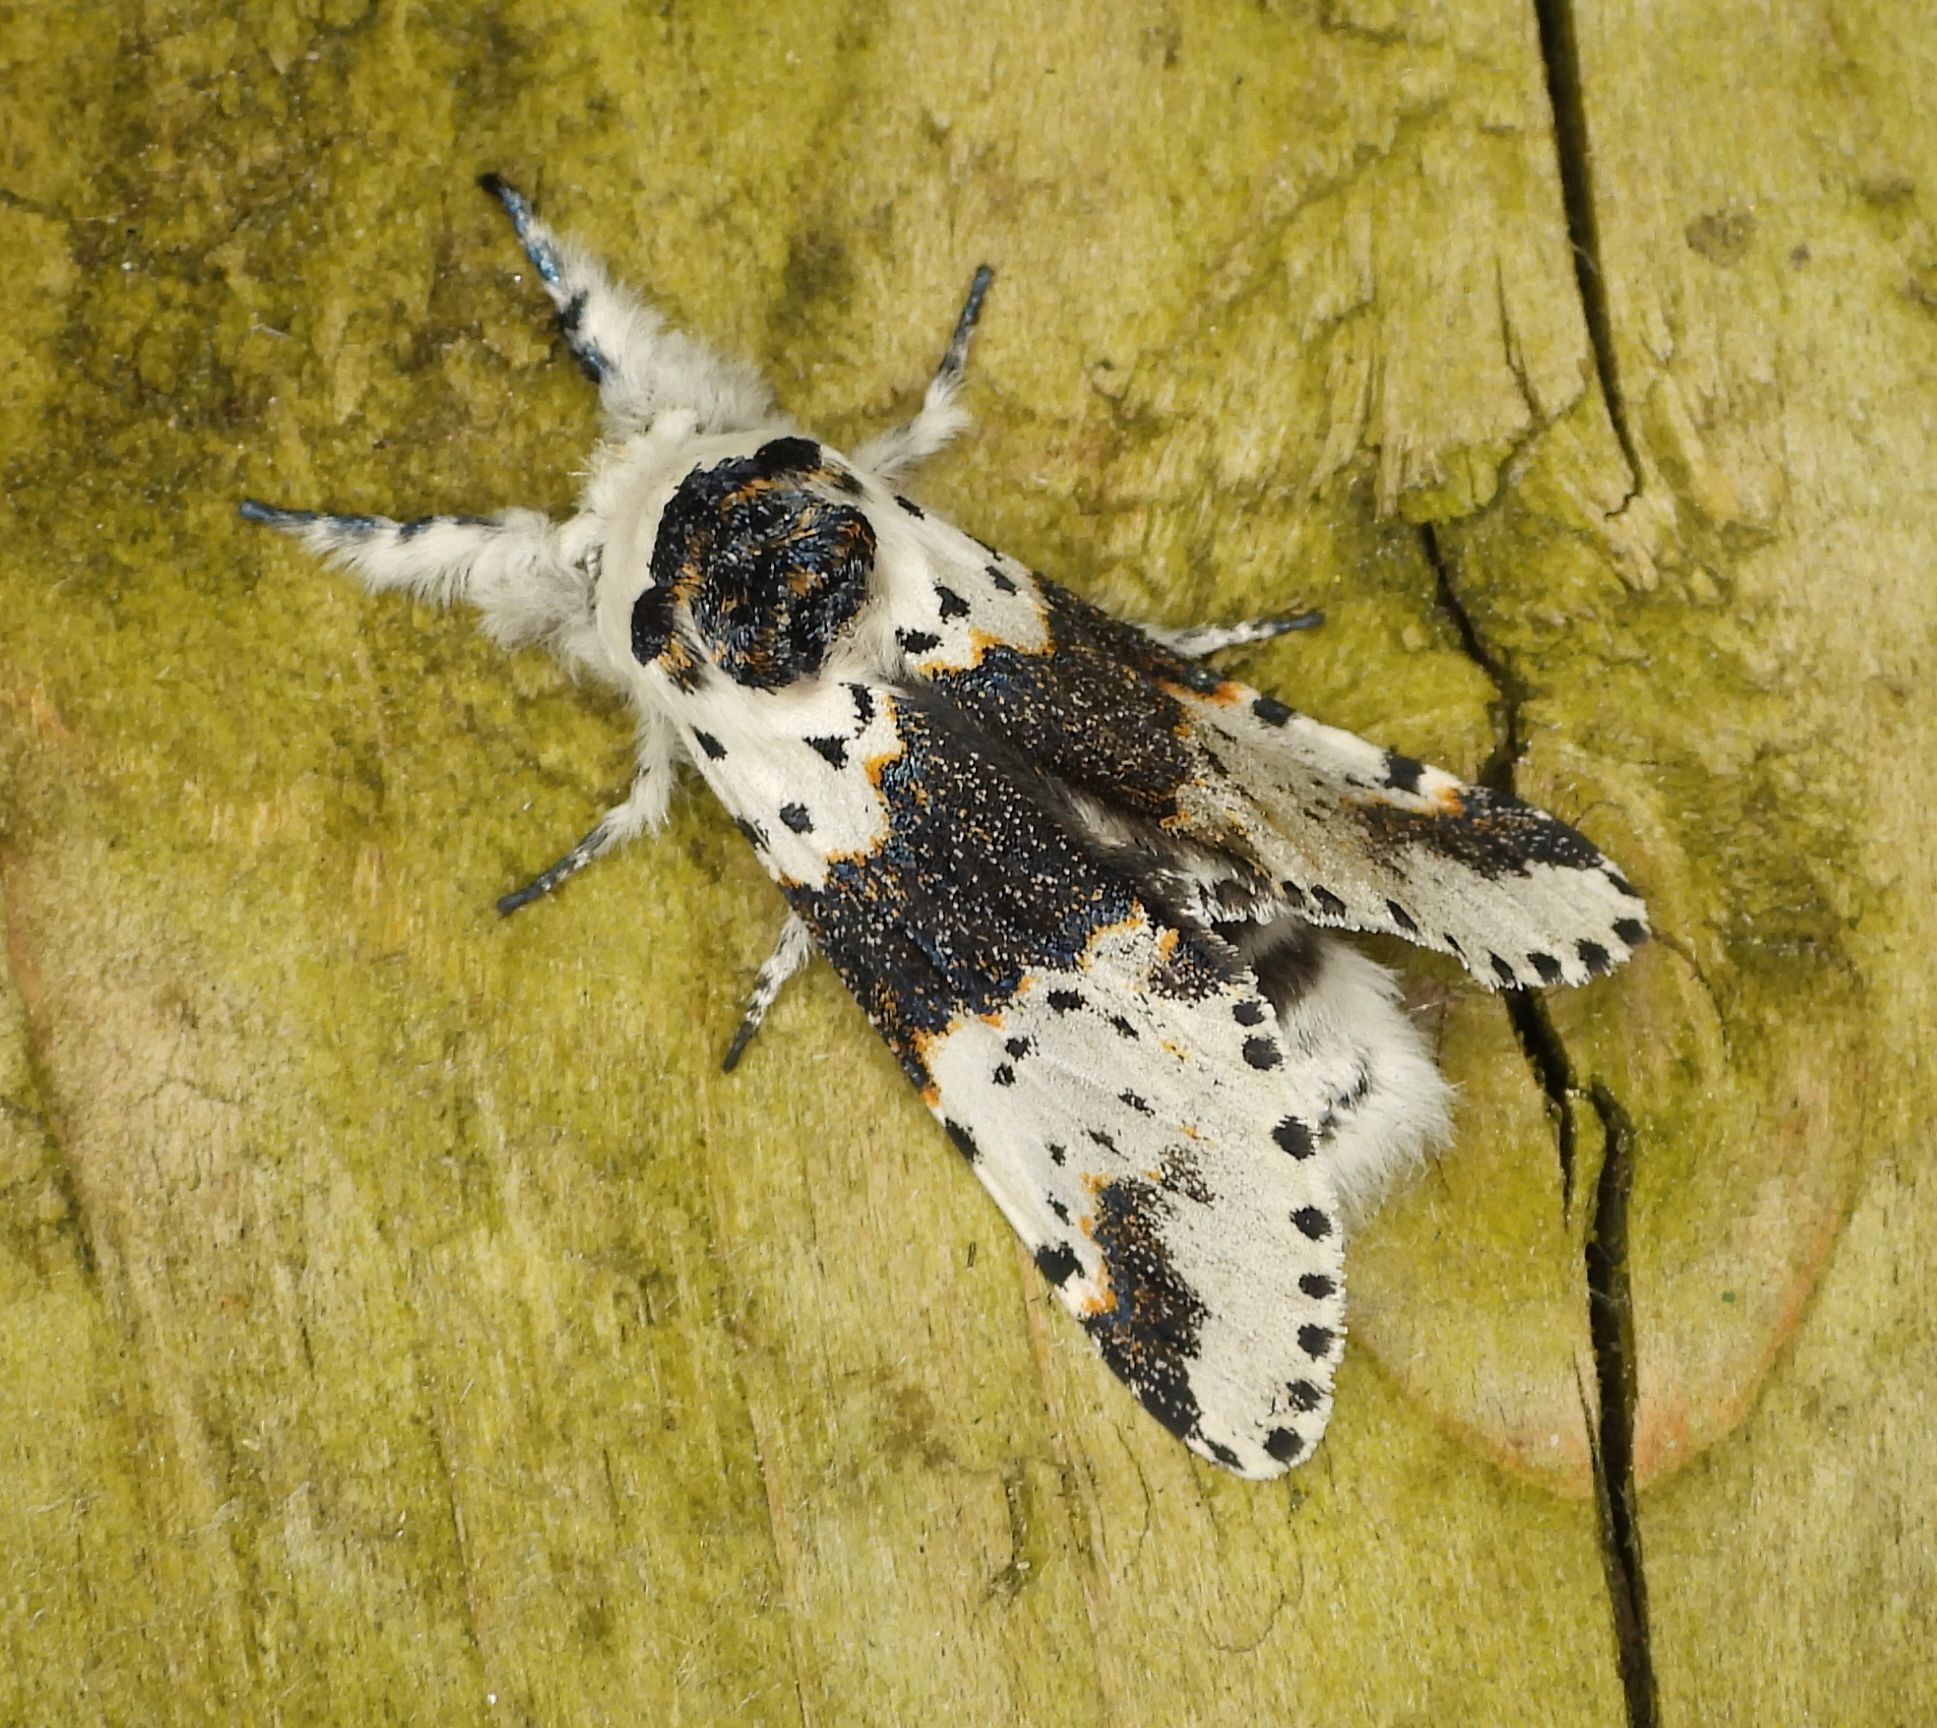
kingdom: Animalia
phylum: Arthropoda
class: Insecta
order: Lepidoptera
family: Notodontidae
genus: Furcula
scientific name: Furcula borealis
